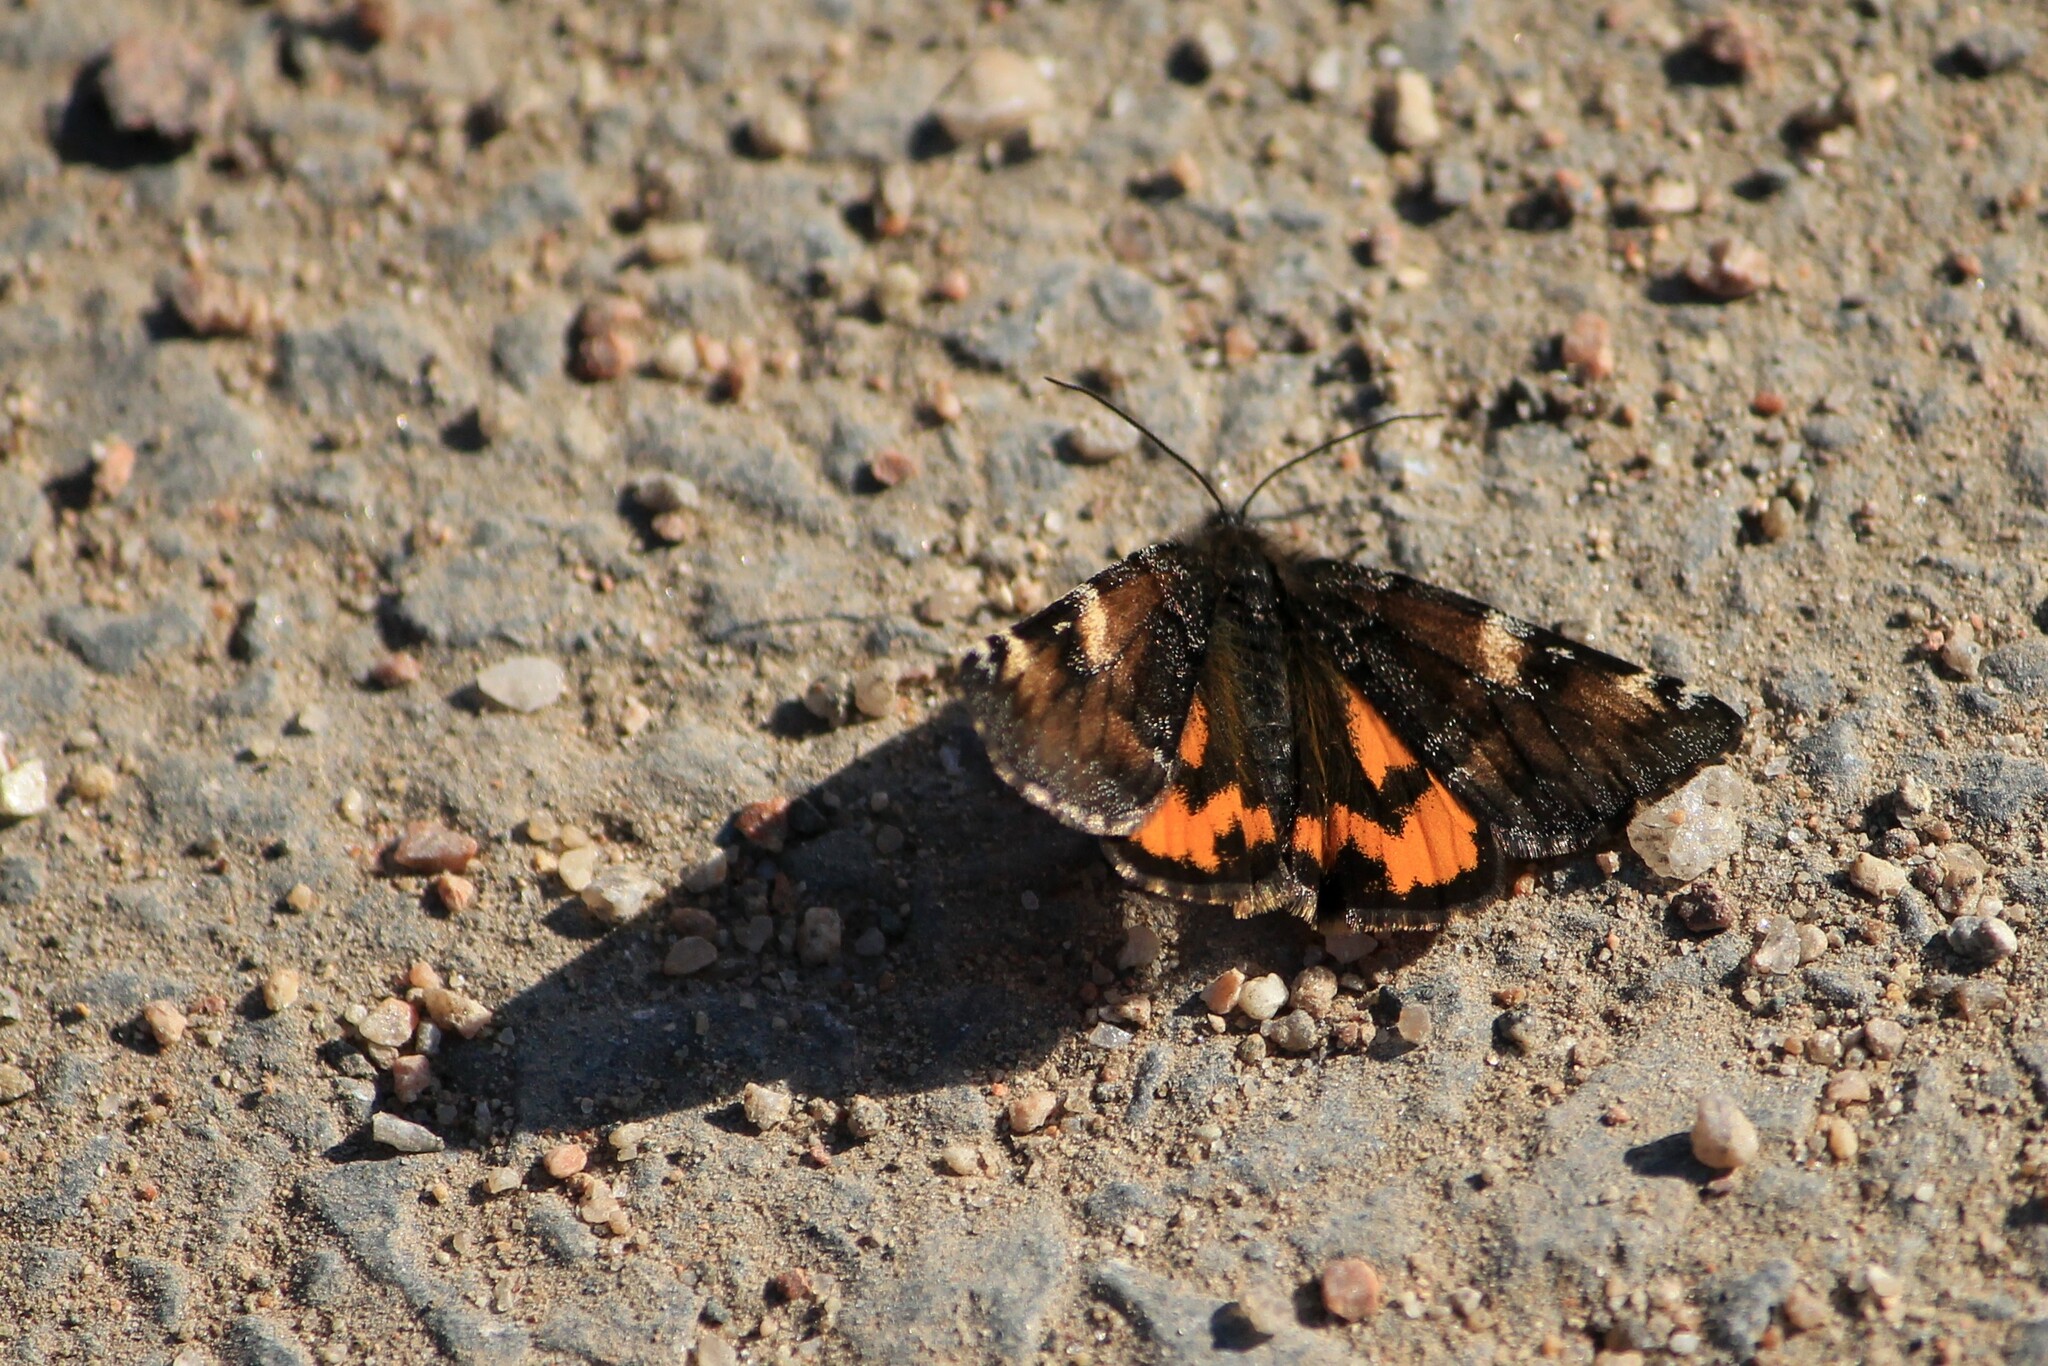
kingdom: Animalia
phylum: Arthropoda
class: Insecta
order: Lepidoptera
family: Geometridae
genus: Archiearis
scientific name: Archiearis parthenias
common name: Orange underwing
